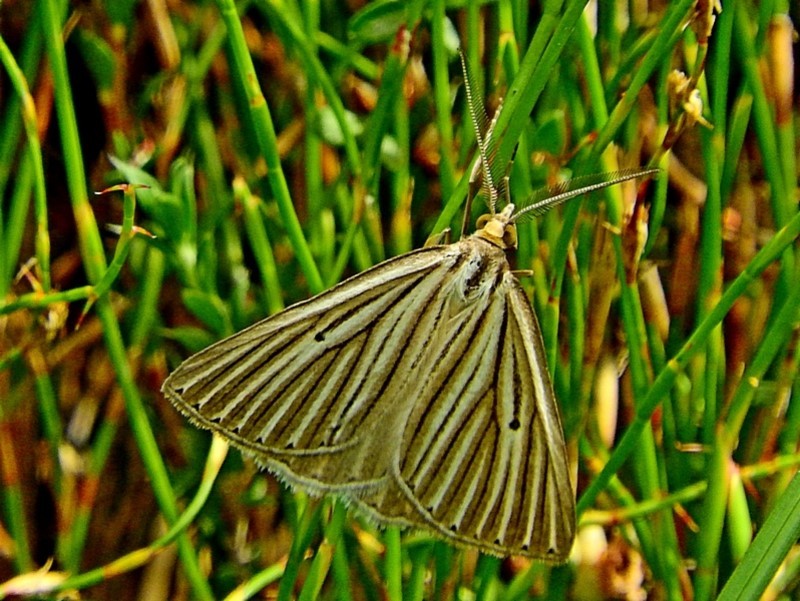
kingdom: Animalia
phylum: Arthropoda
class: Insecta
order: Lepidoptera
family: Geometridae
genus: Amelora
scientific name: Amelora leucaniata
